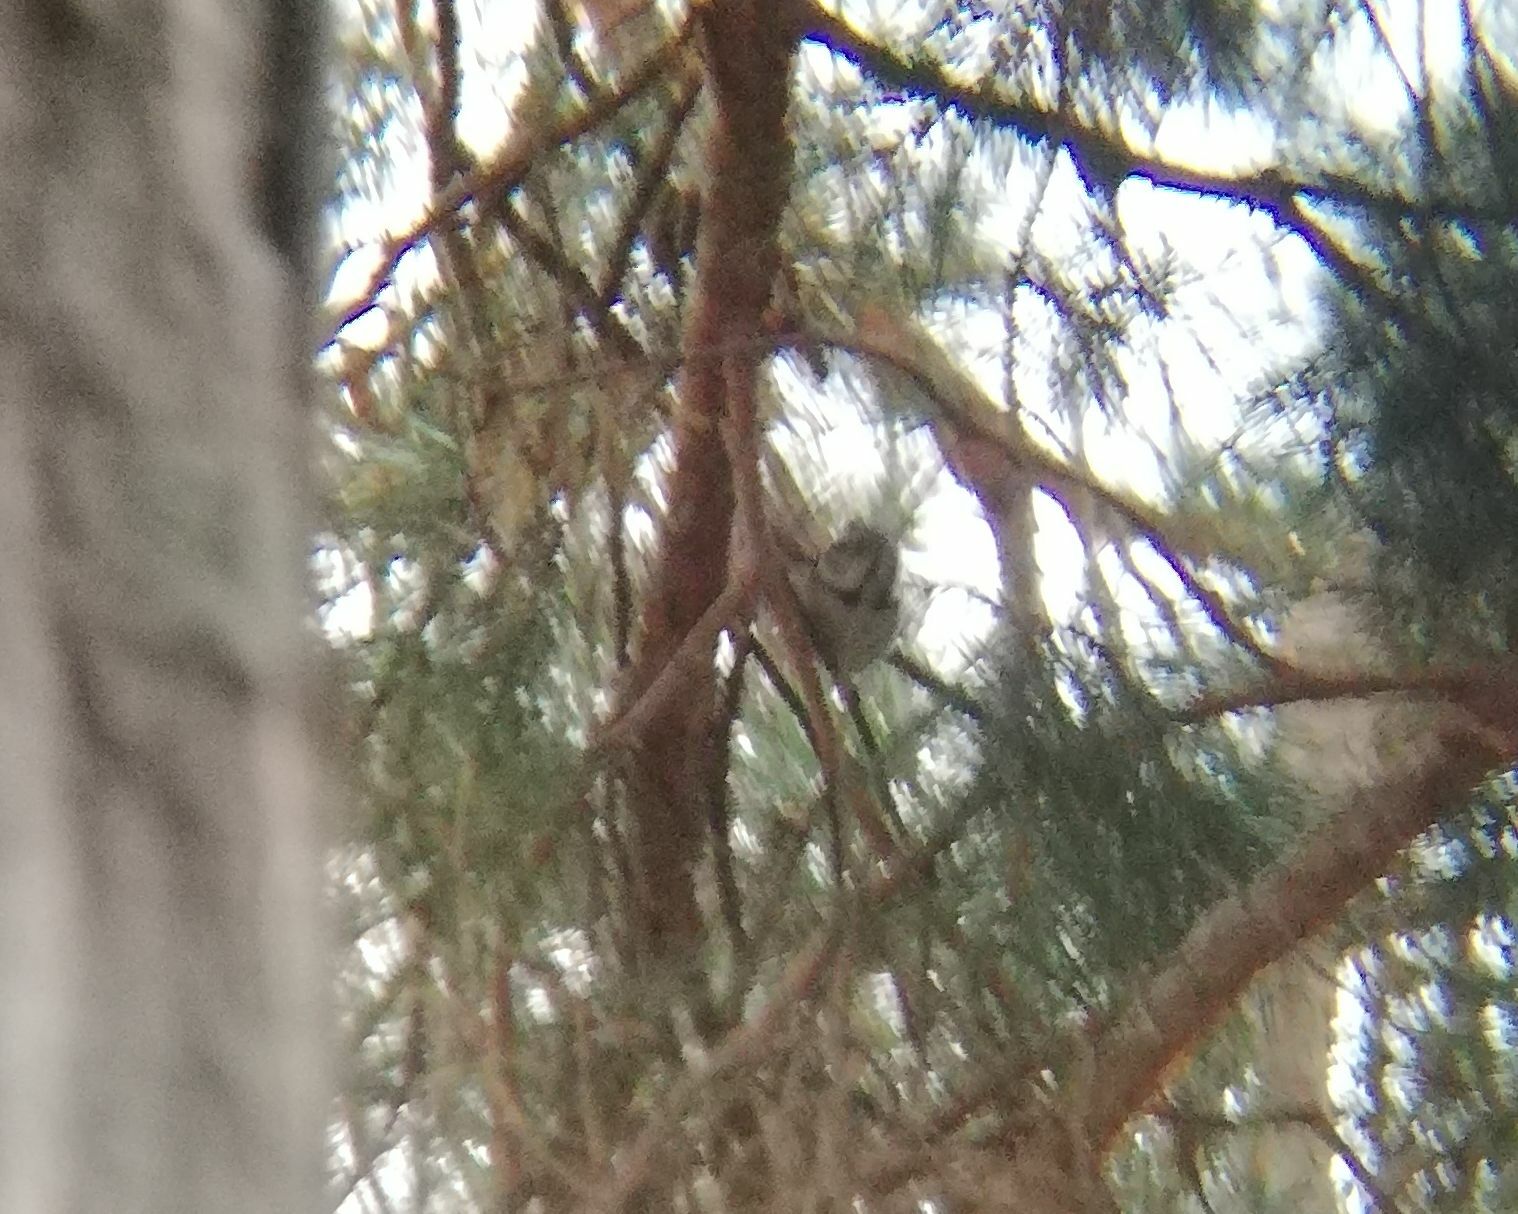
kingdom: Animalia
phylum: Chordata
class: Aves
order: Passeriformes
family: Paridae
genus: Lophophanes
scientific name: Lophophanes cristatus
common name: European crested tit
